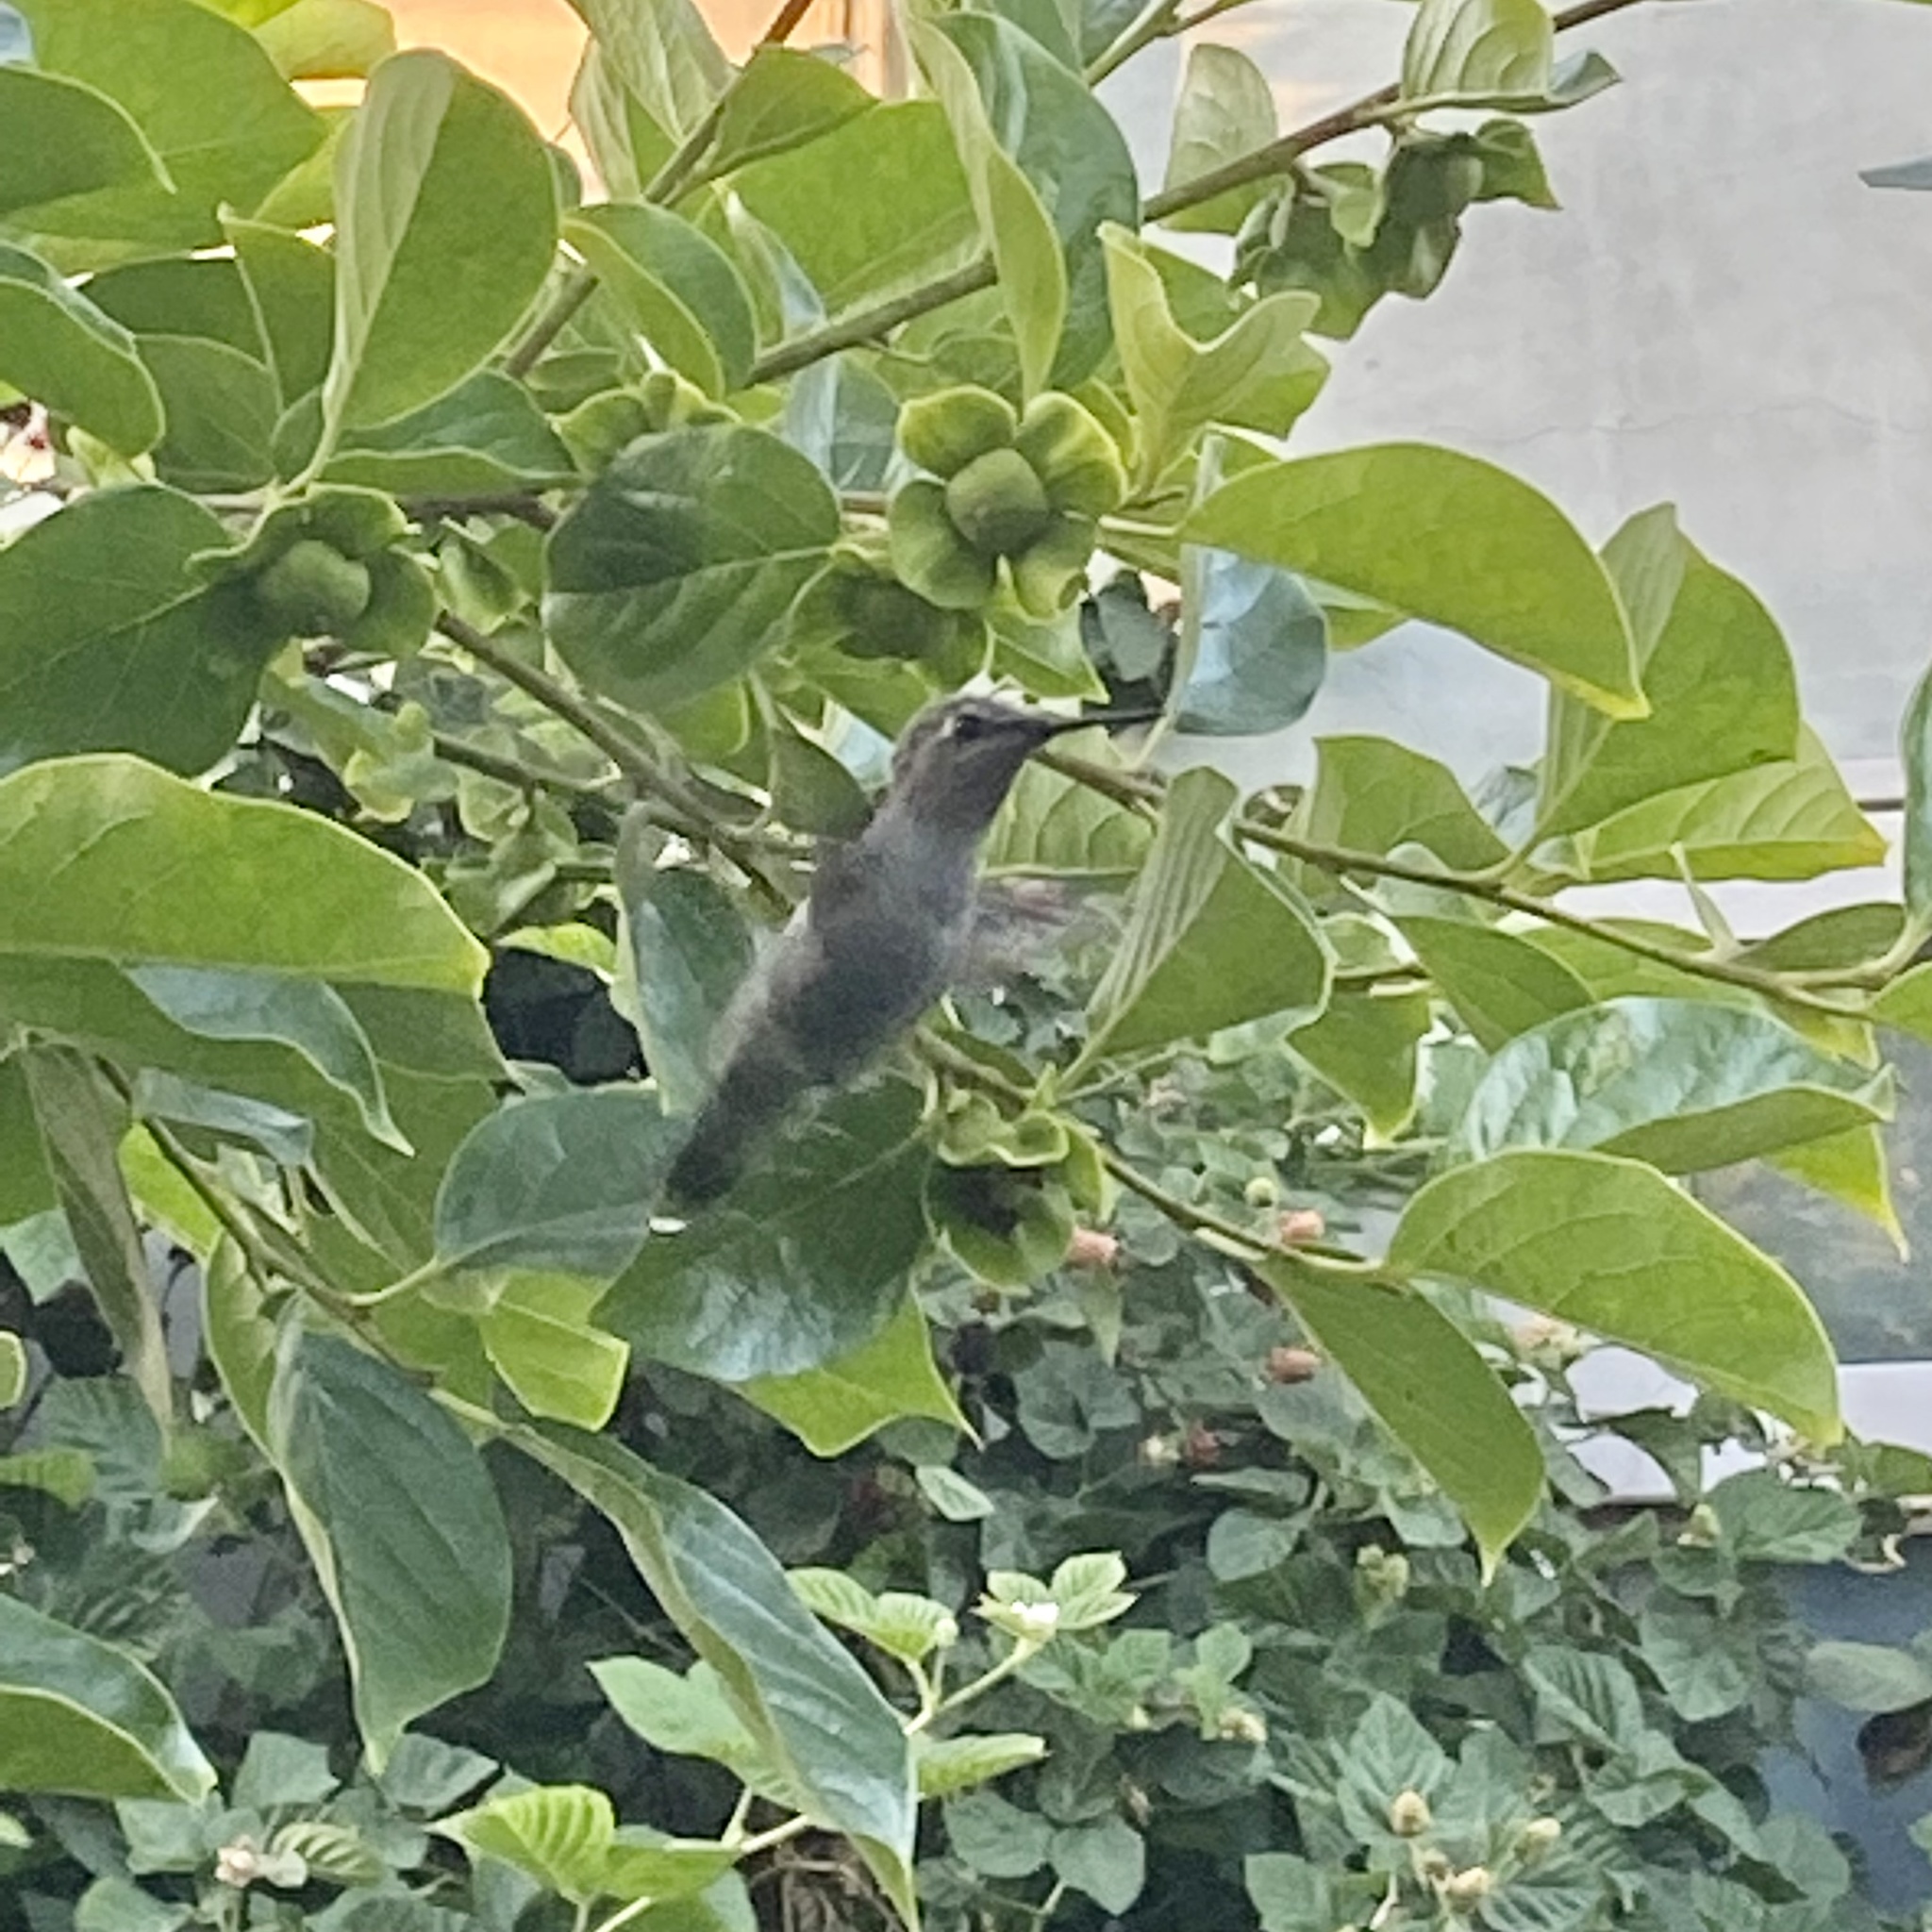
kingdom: Animalia
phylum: Chordata
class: Aves
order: Apodiformes
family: Trochilidae
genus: Calypte
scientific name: Calypte anna
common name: Anna's hummingbird
